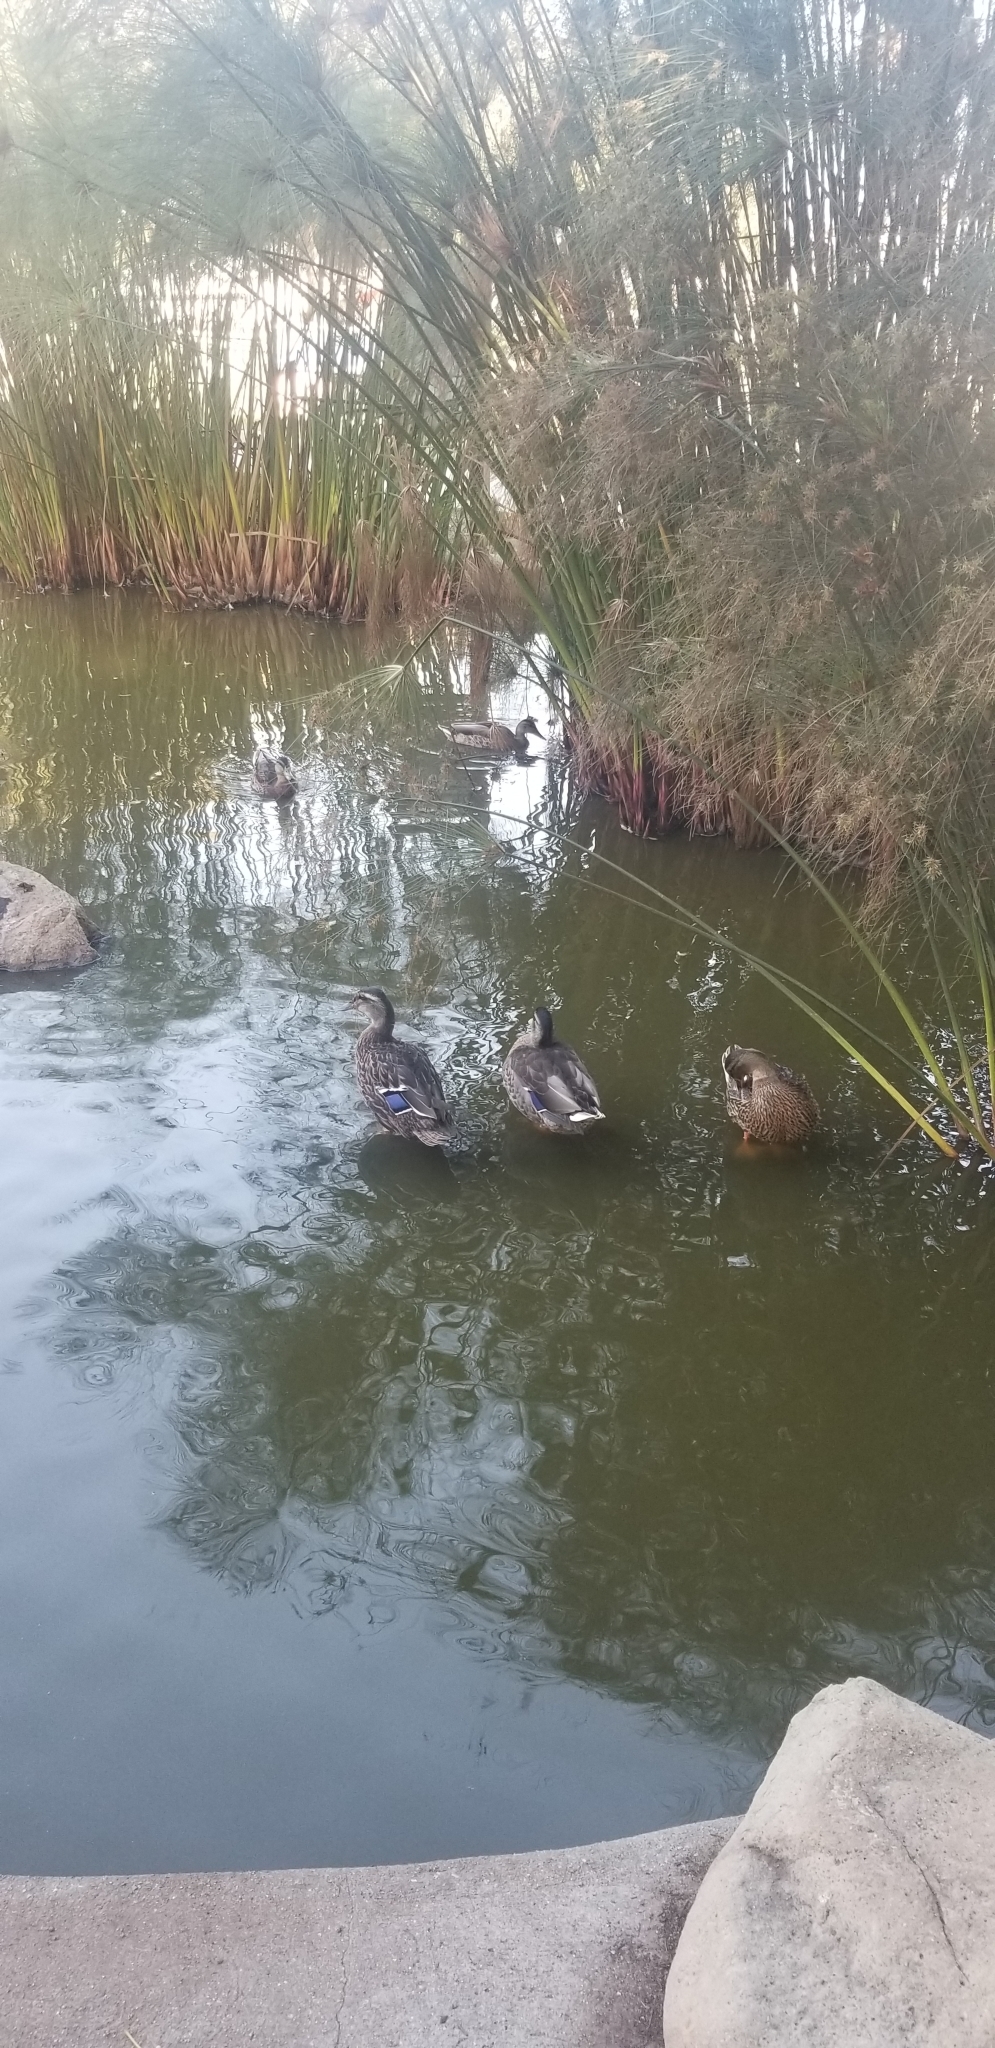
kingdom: Animalia
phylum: Chordata
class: Aves
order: Anseriformes
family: Anatidae
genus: Anas
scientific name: Anas platyrhynchos
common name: Mallard
